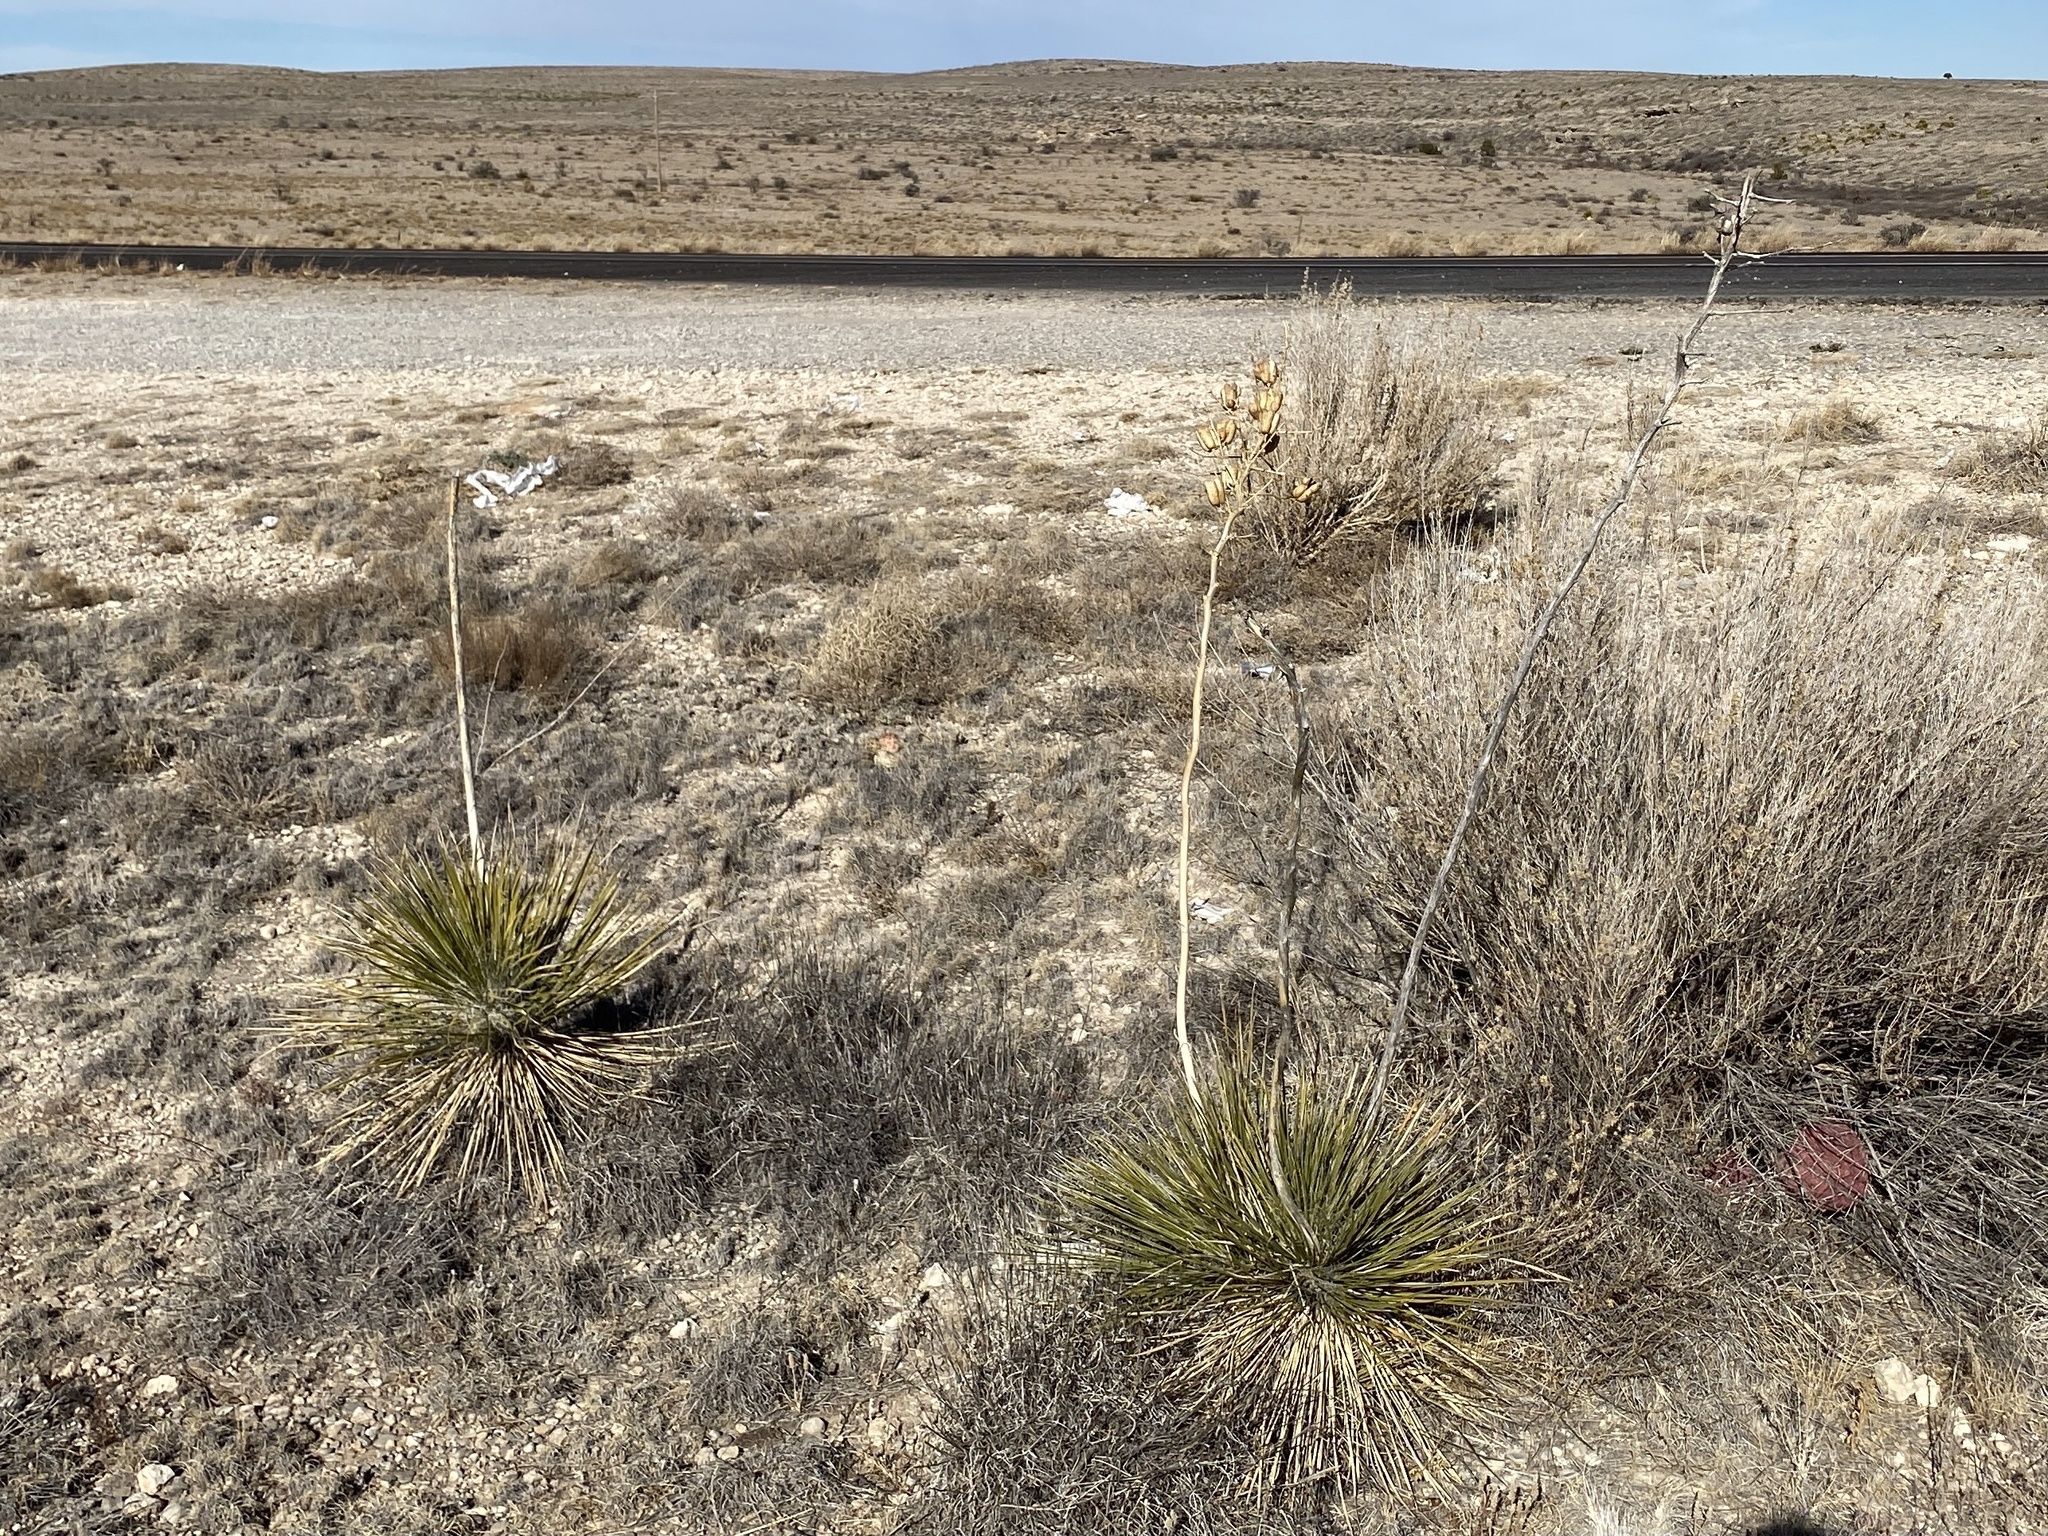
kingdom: Plantae
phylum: Tracheophyta
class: Liliopsida
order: Asparagales
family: Asparagaceae
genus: Yucca
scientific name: Yucca elata
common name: Palmella
